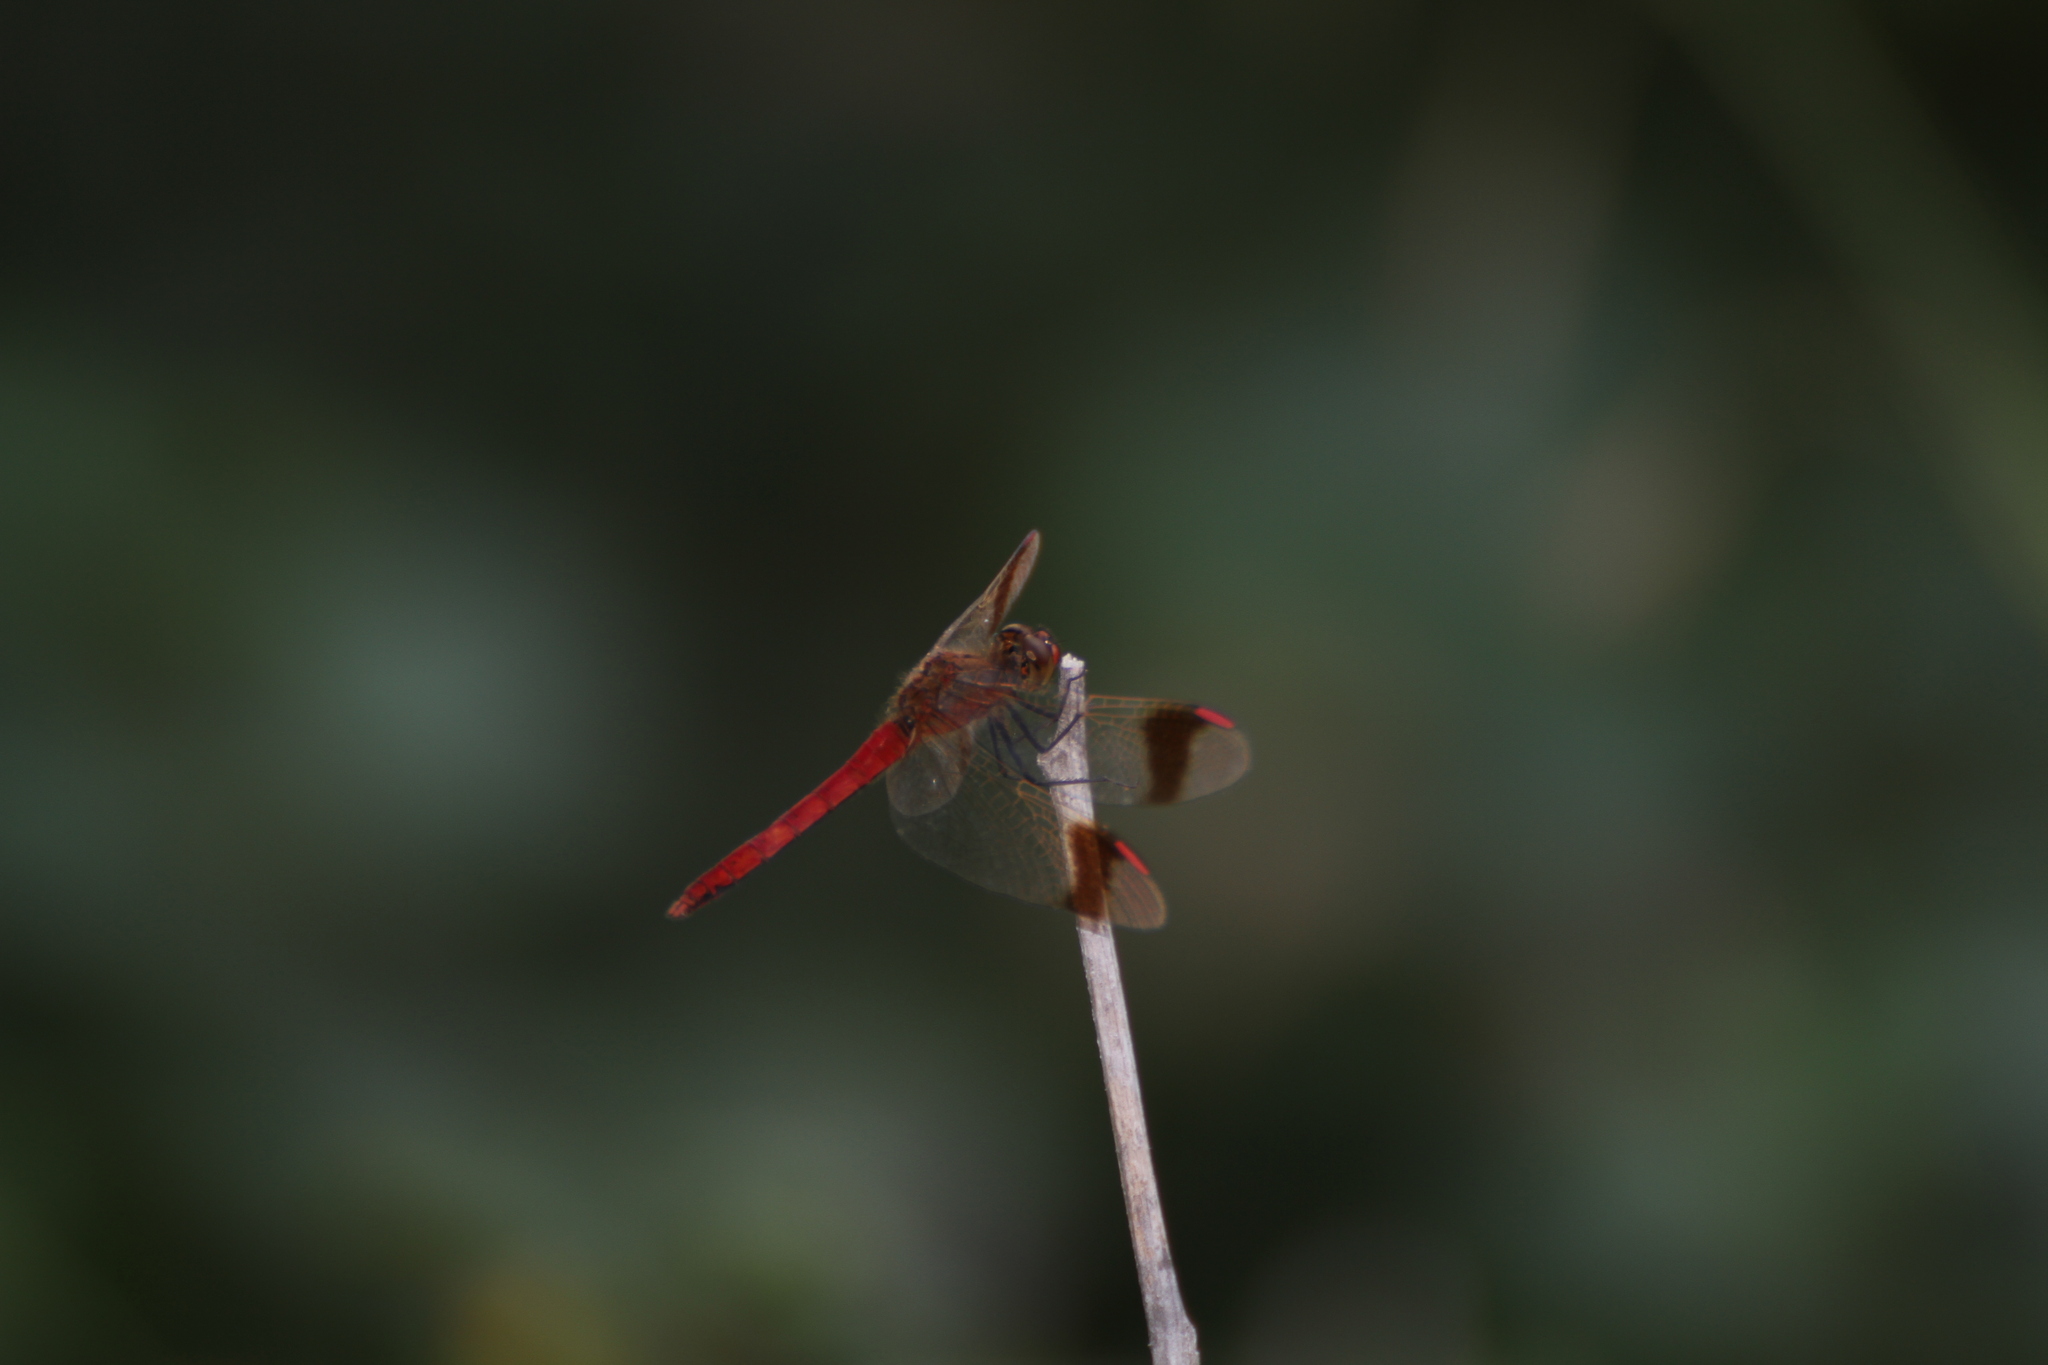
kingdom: Animalia
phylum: Arthropoda
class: Insecta
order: Odonata
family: Libellulidae
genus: Sympetrum
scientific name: Sympetrum pedemontanum
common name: Banded darter
